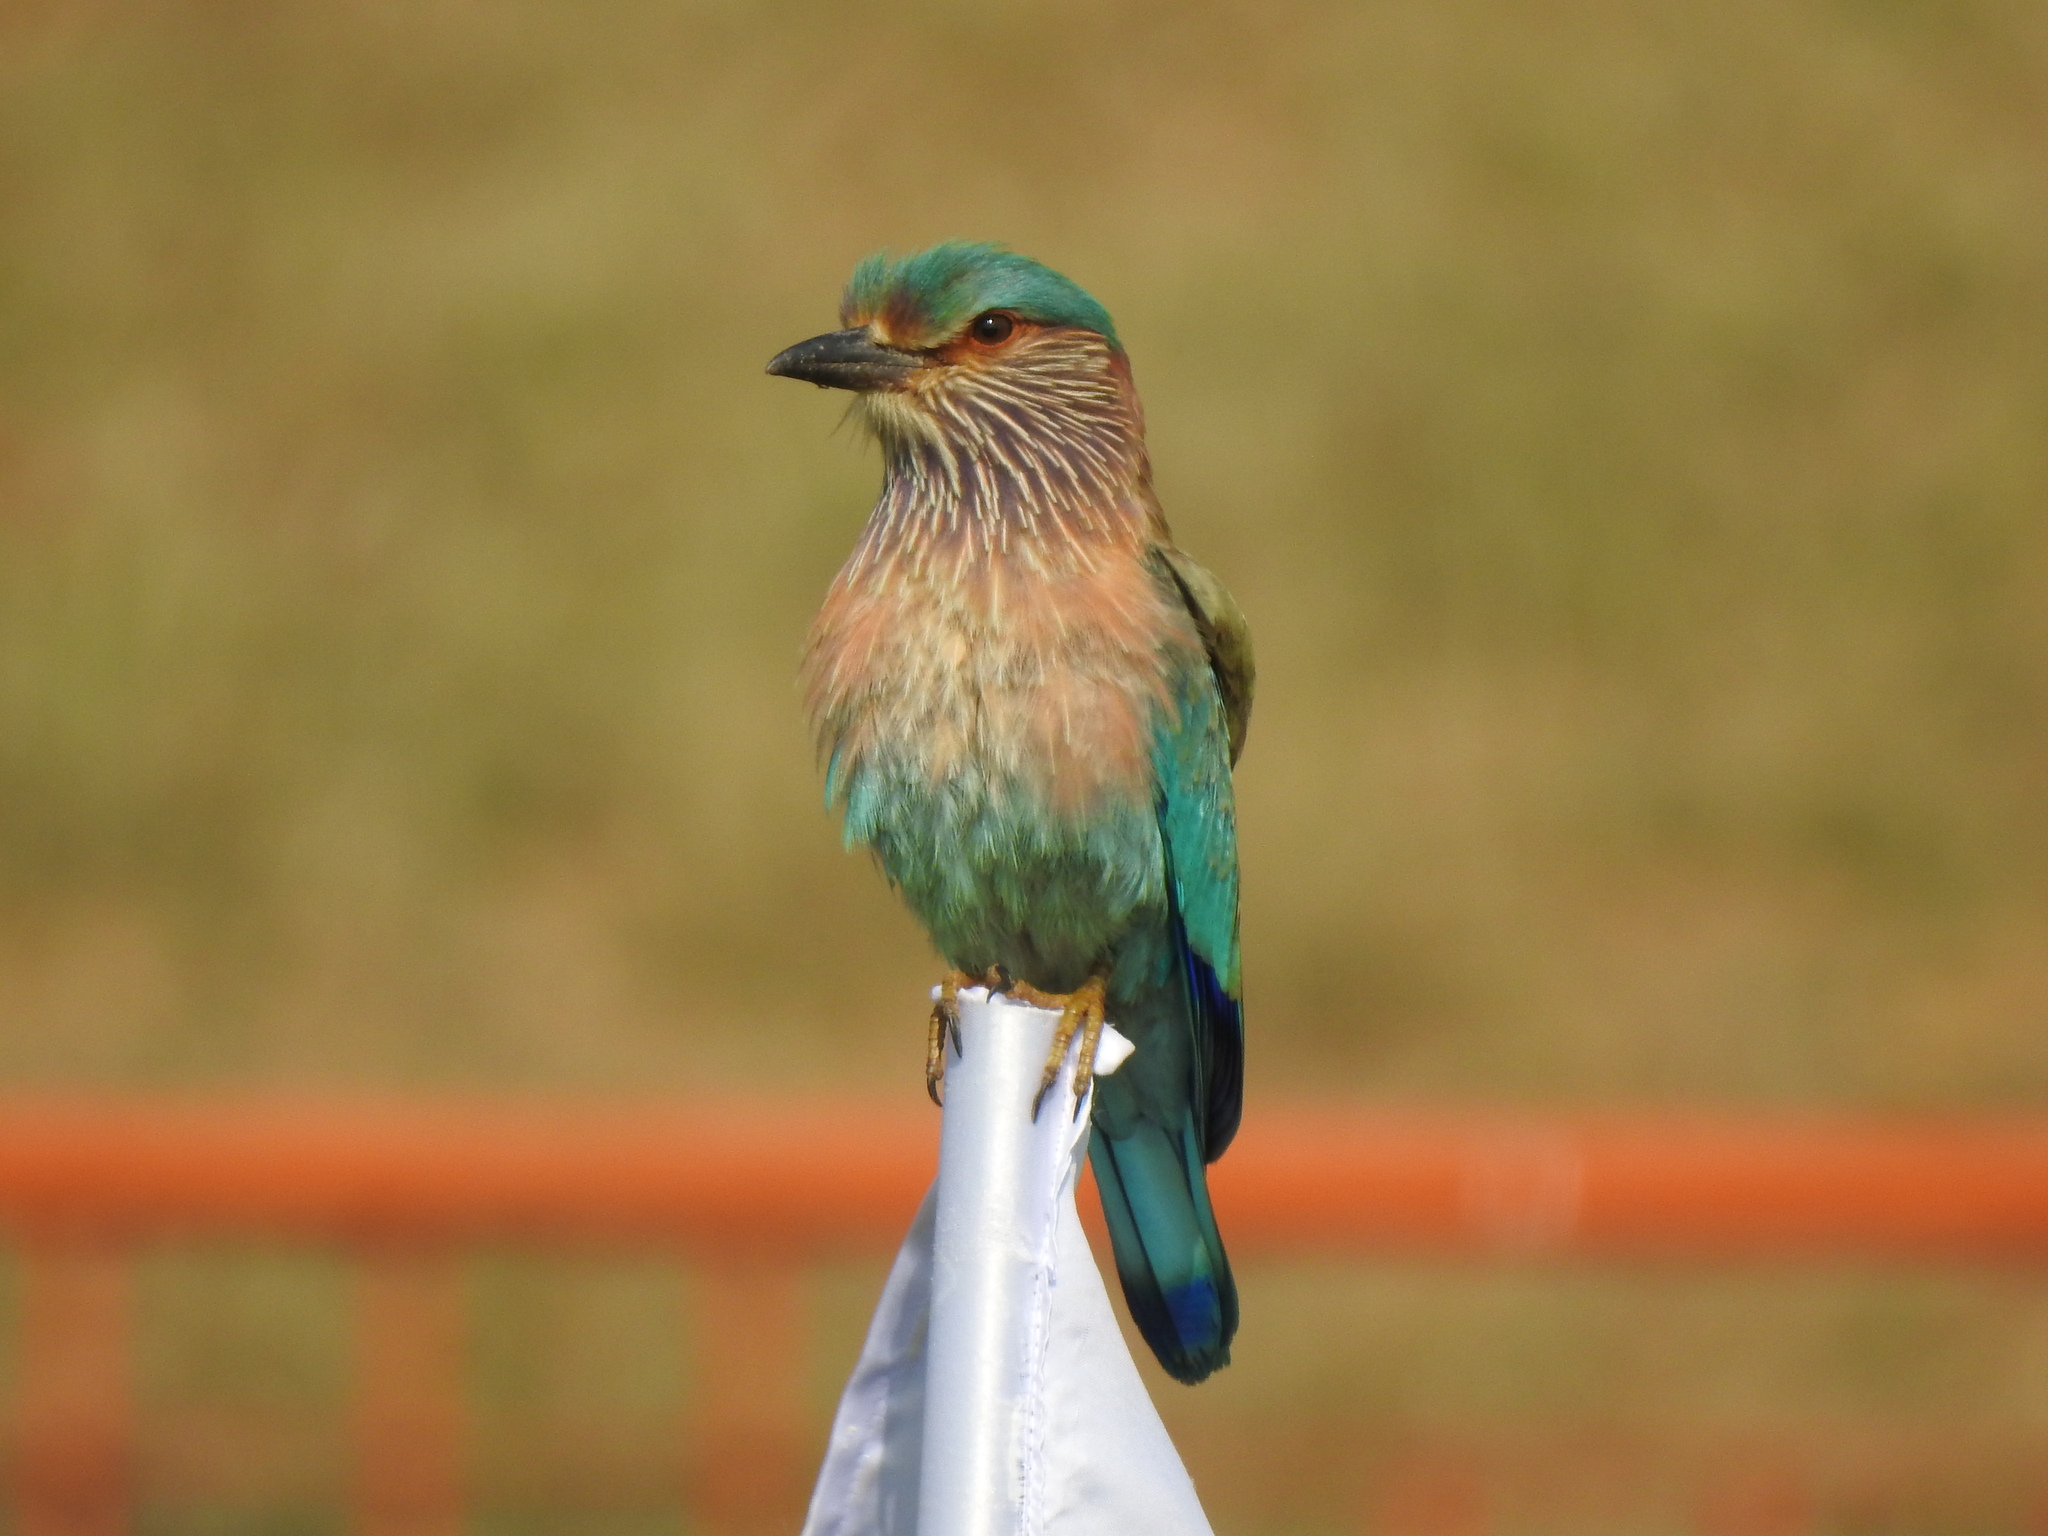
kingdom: Animalia
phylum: Chordata
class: Aves
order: Coraciiformes
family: Coraciidae
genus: Coracias
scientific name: Coracias benghalensis
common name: Indian roller
